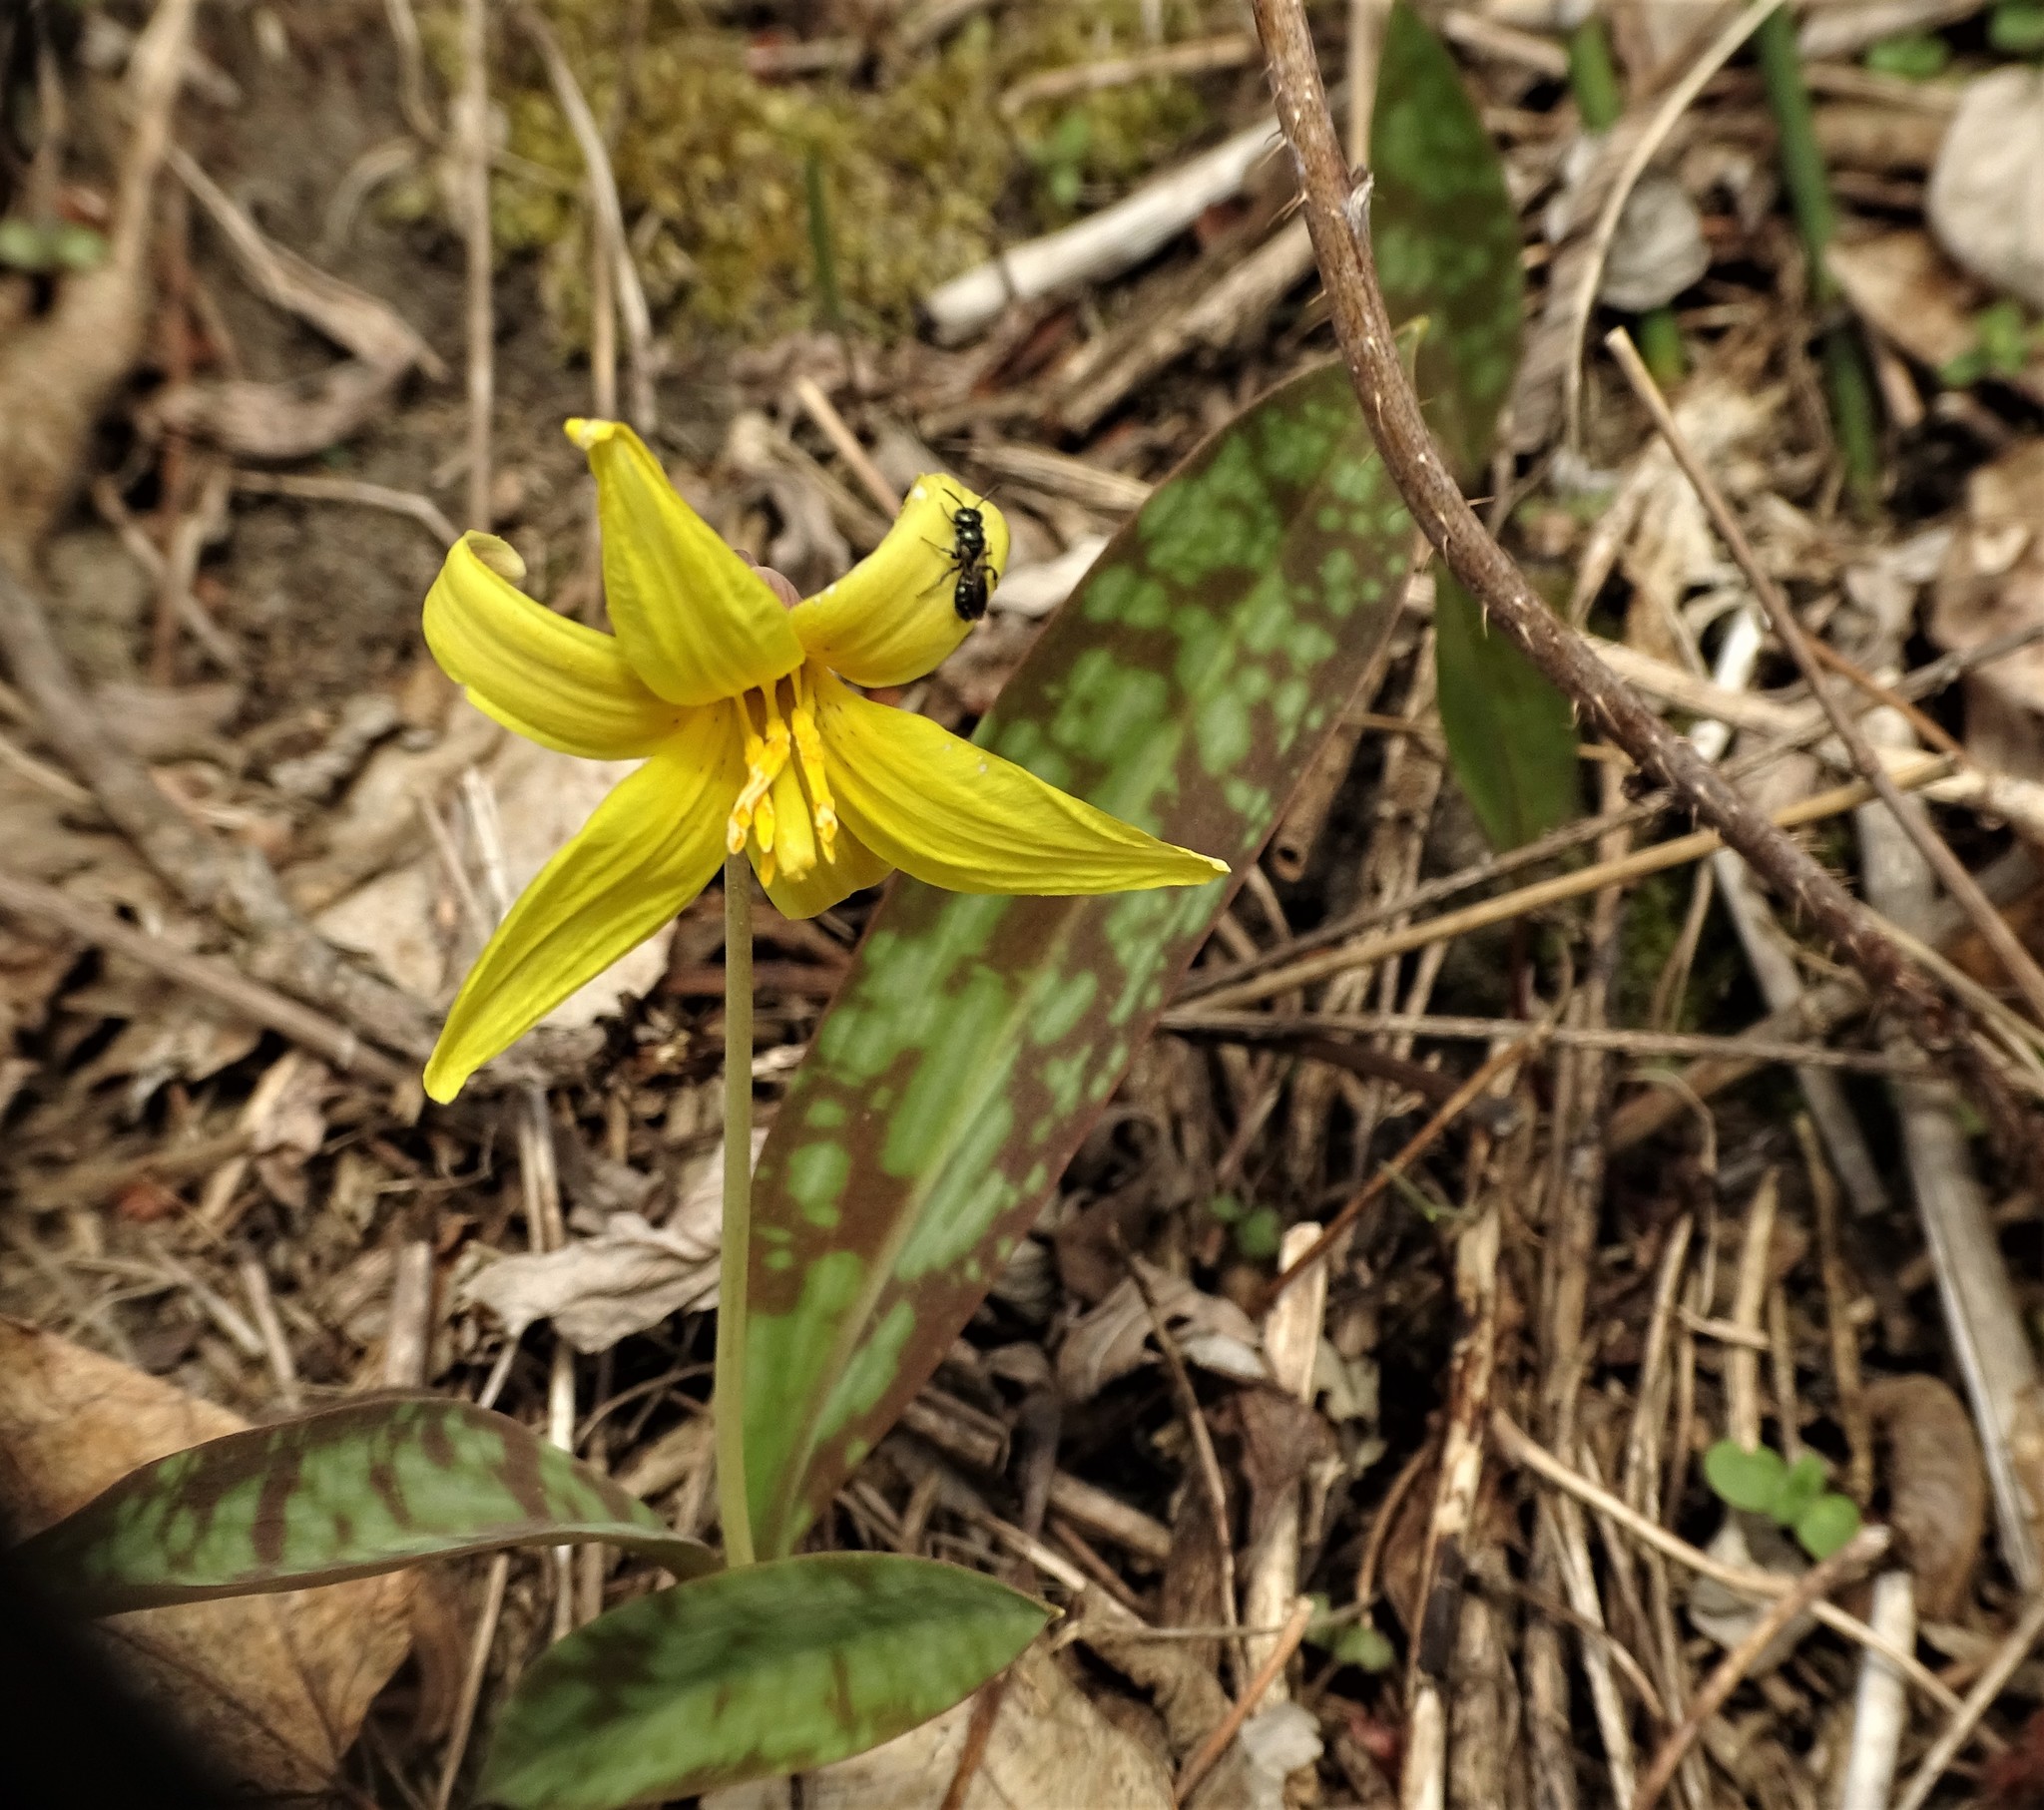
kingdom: Plantae
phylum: Tracheophyta
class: Liliopsida
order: Liliales
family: Liliaceae
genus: Erythronium
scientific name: Erythronium americanum
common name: Yellow adder's-tongue
